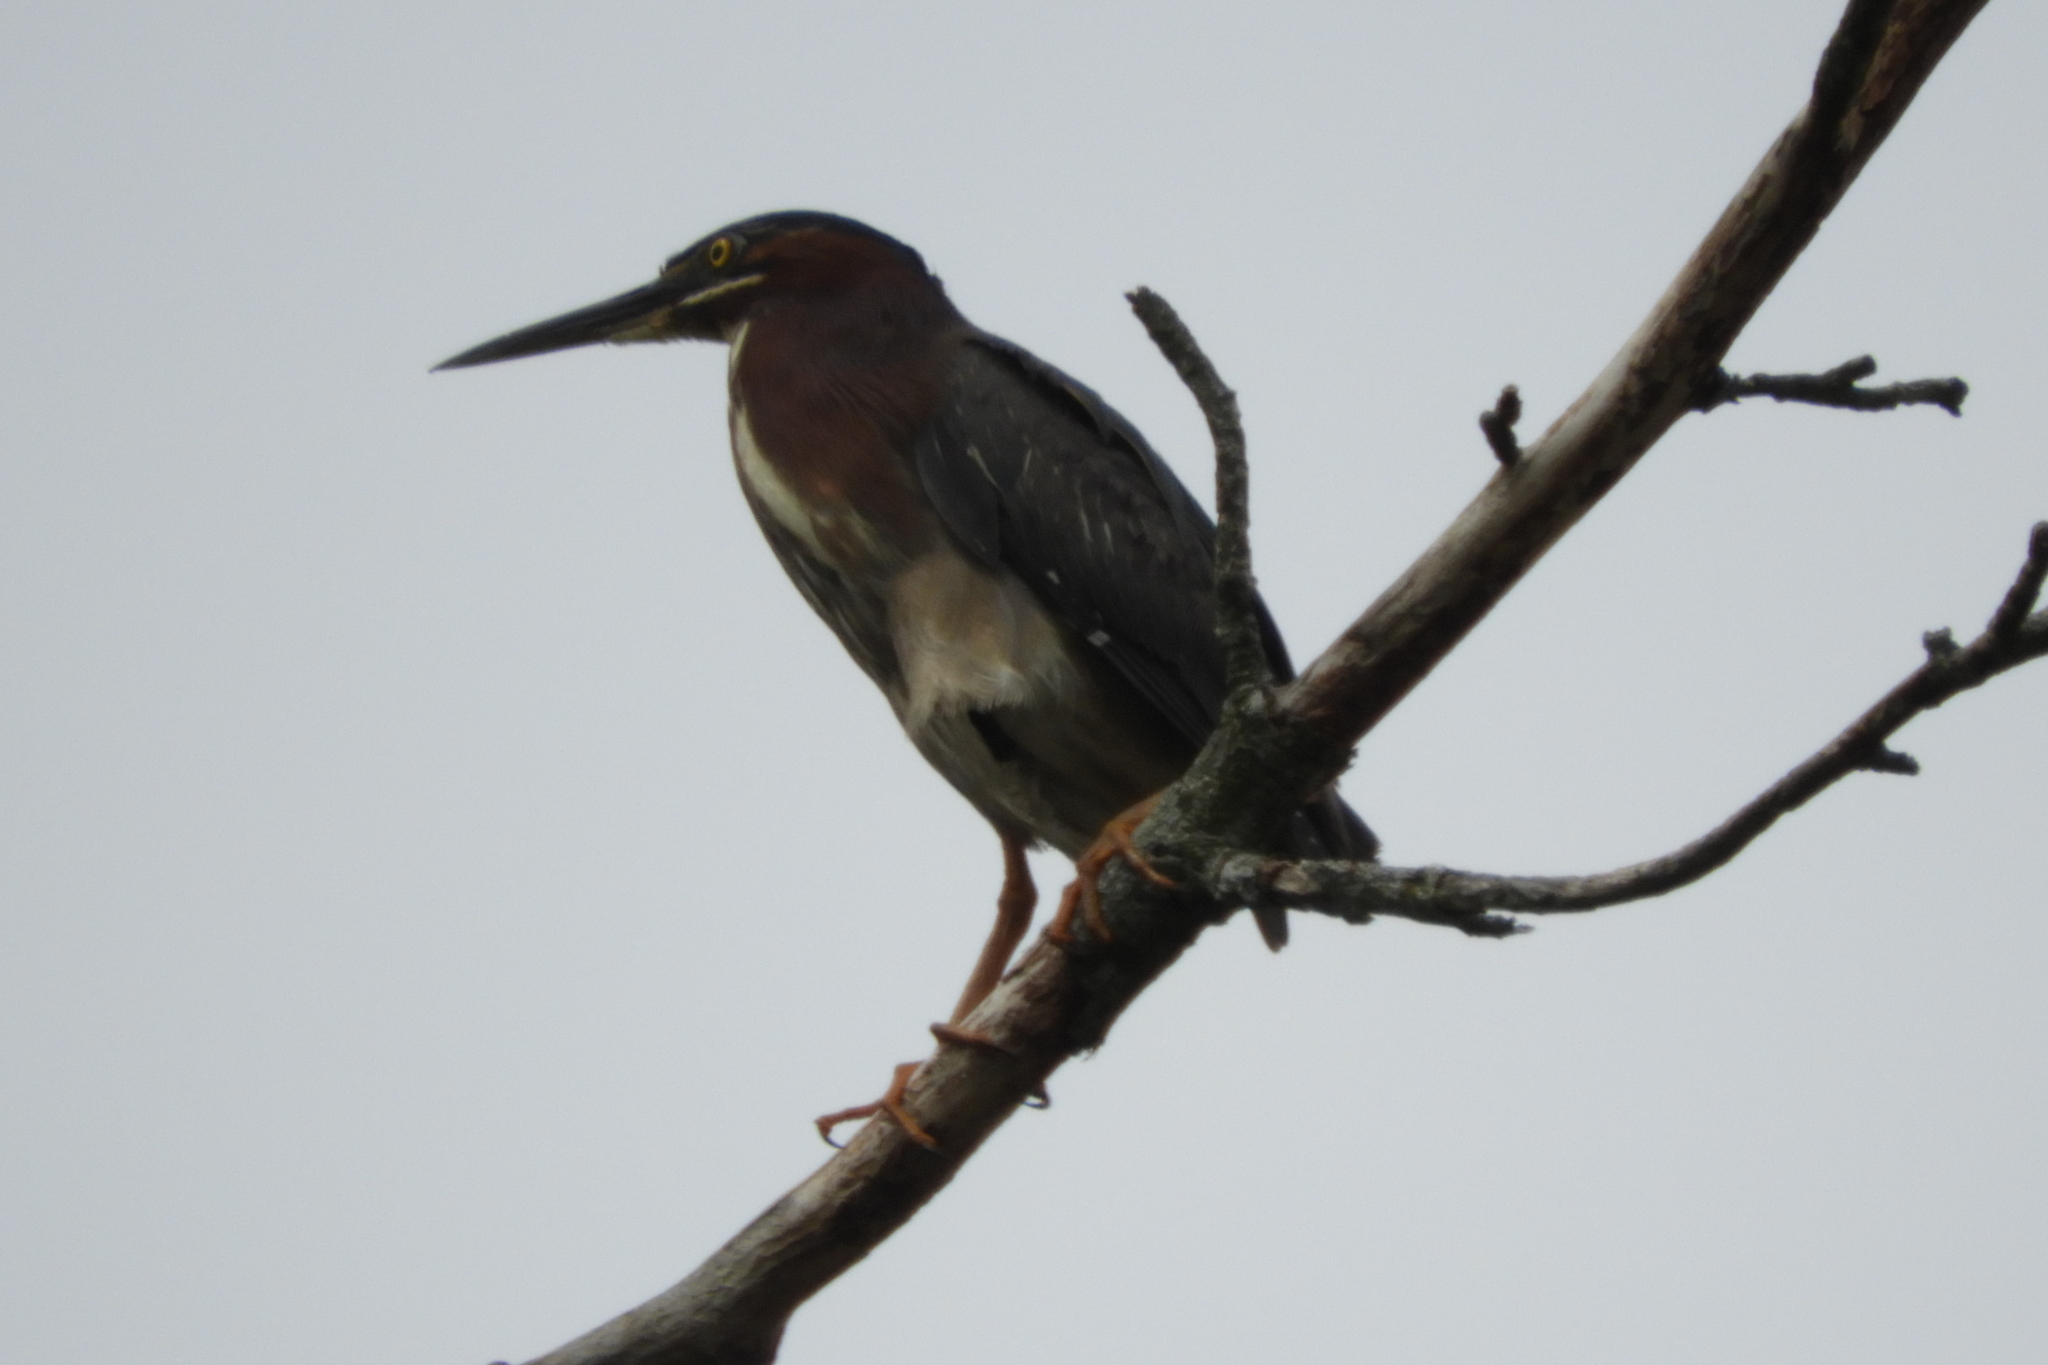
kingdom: Animalia
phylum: Chordata
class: Aves
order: Pelecaniformes
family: Ardeidae
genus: Butorides
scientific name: Butorides virescens
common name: Green heron
